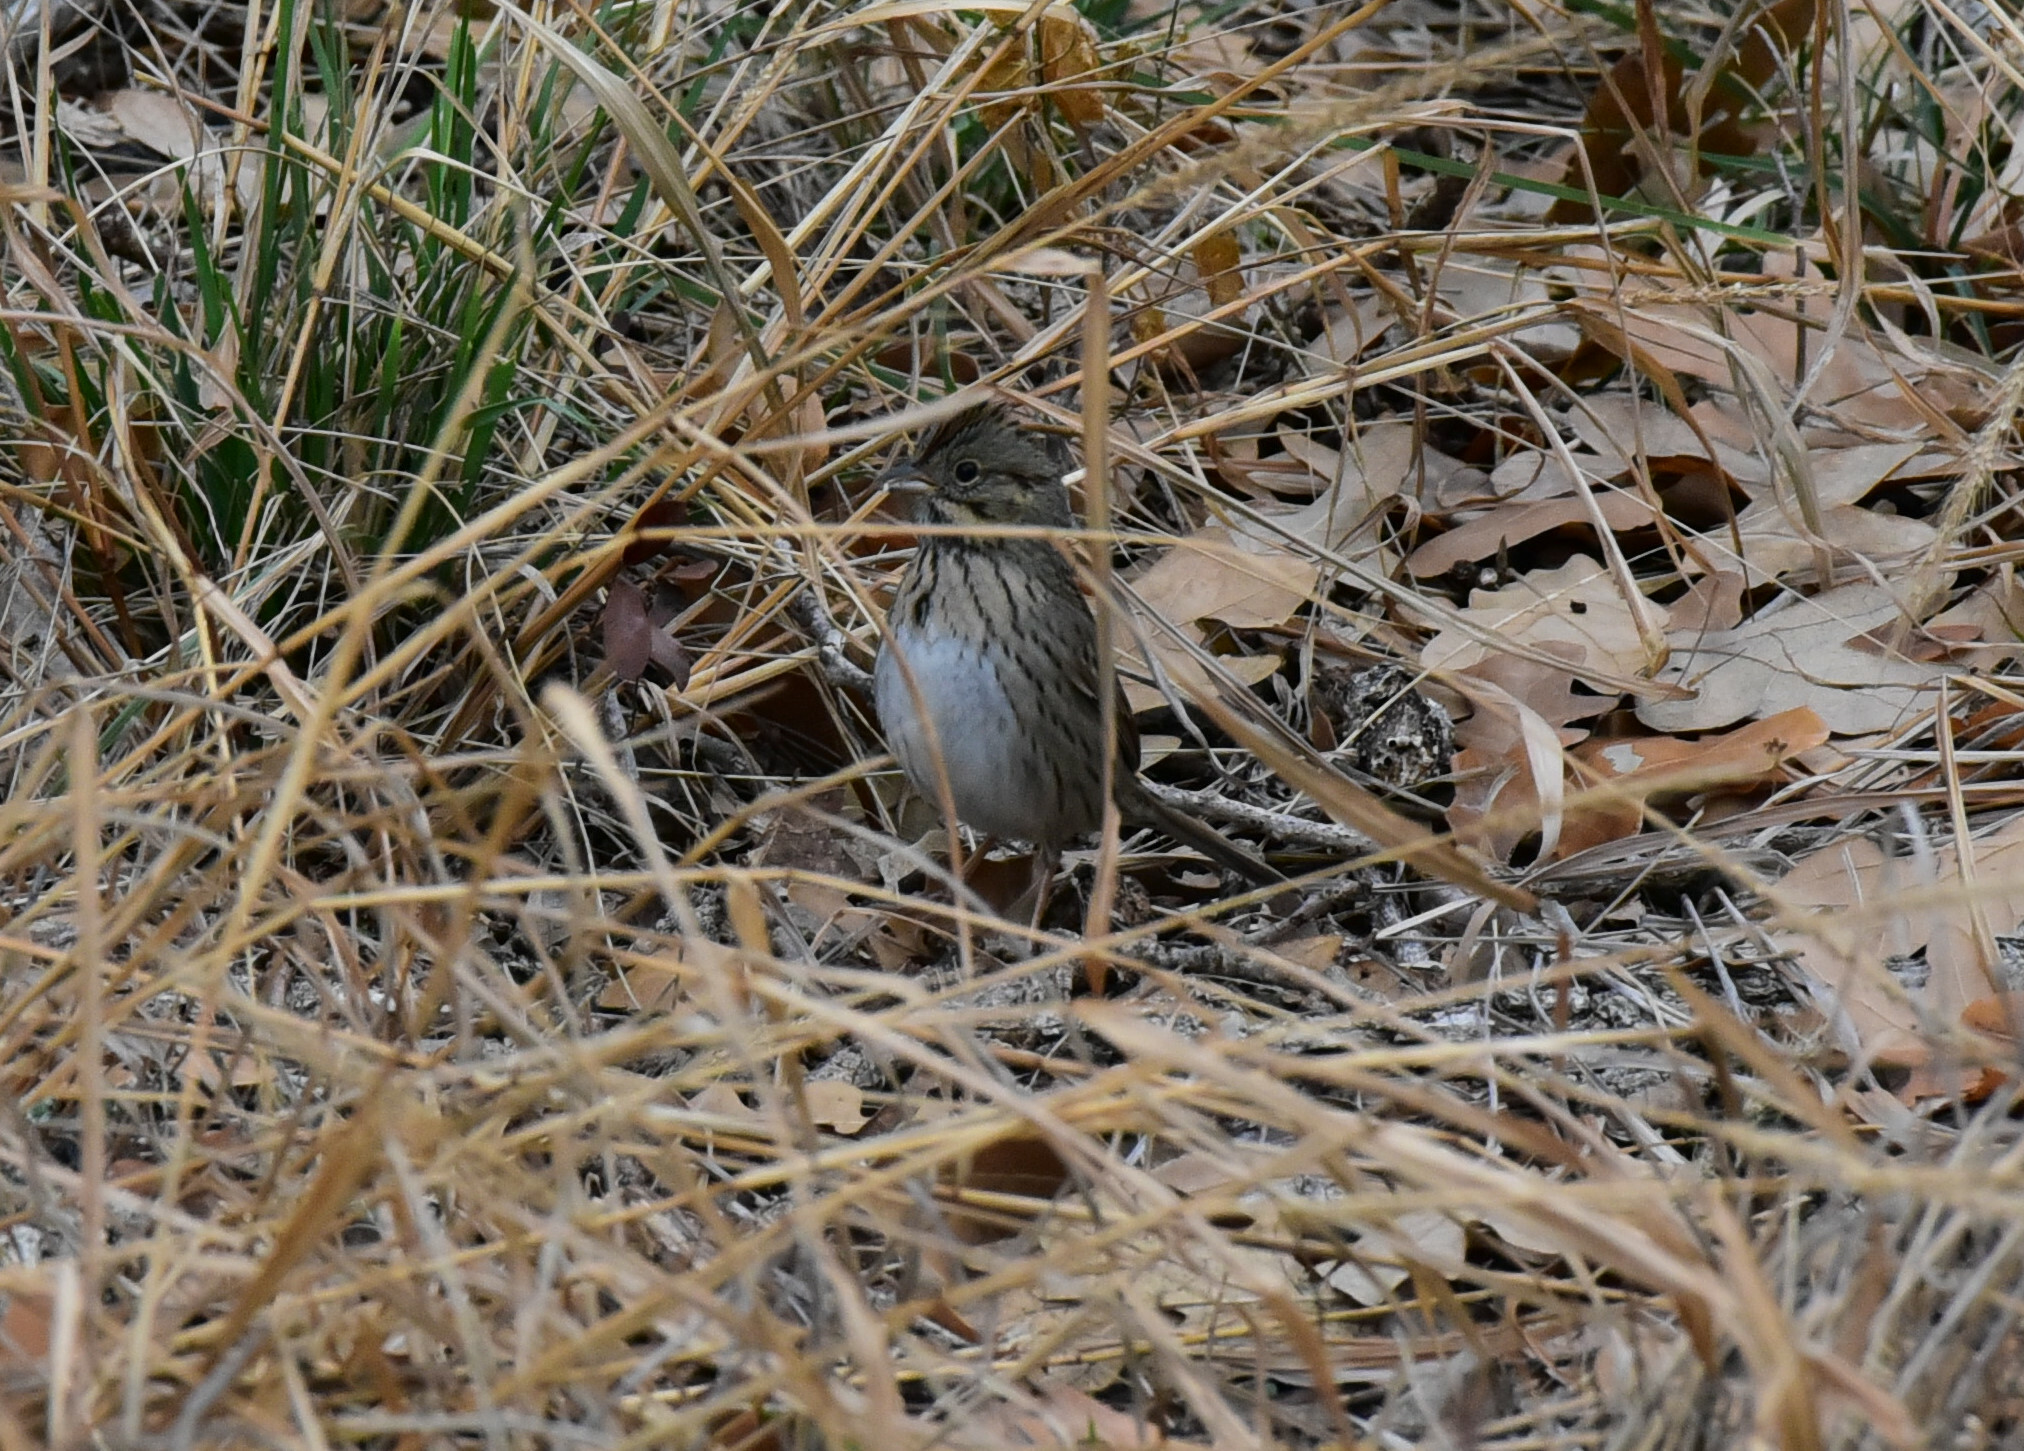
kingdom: Animalia
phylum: Chordata
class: Aves
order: Passeriformes
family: Passerellidae
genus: Melospiza
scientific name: Melospiza lincolnii
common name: Lincoln's sparrow
